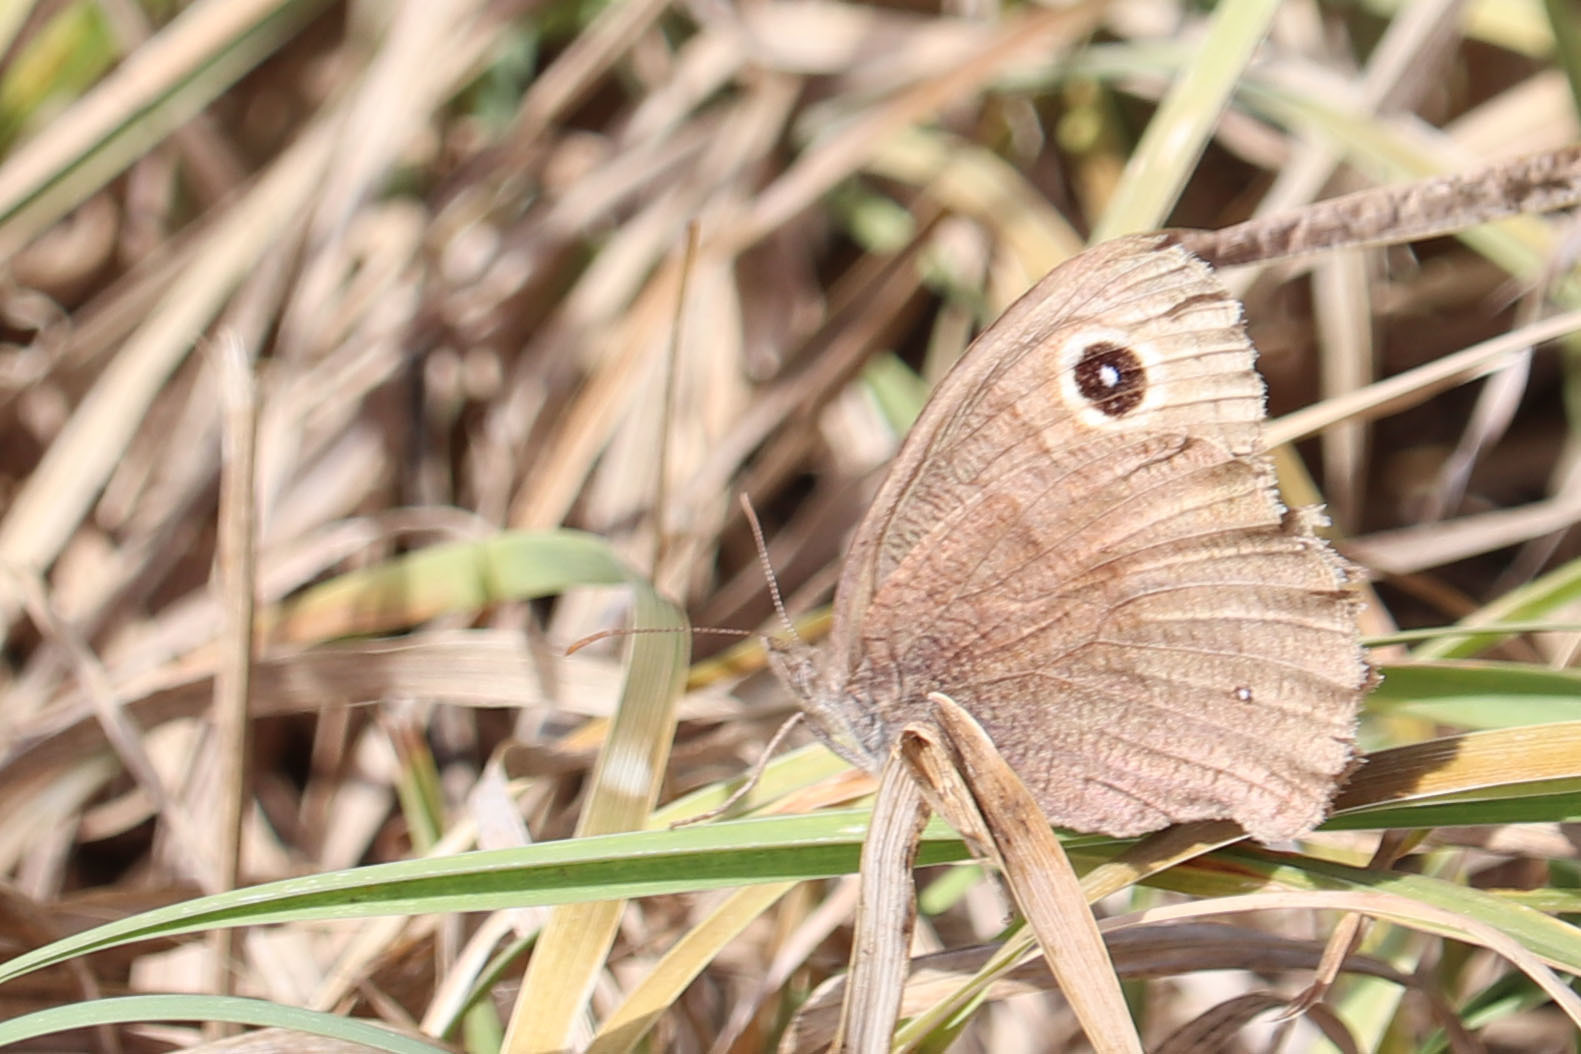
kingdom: Animalia
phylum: Arthropoda
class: Insecta
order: Lepidoptera
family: Nymphalidae
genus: Cercyonis
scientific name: Cercyonis pegala
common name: Common wood-nymph
